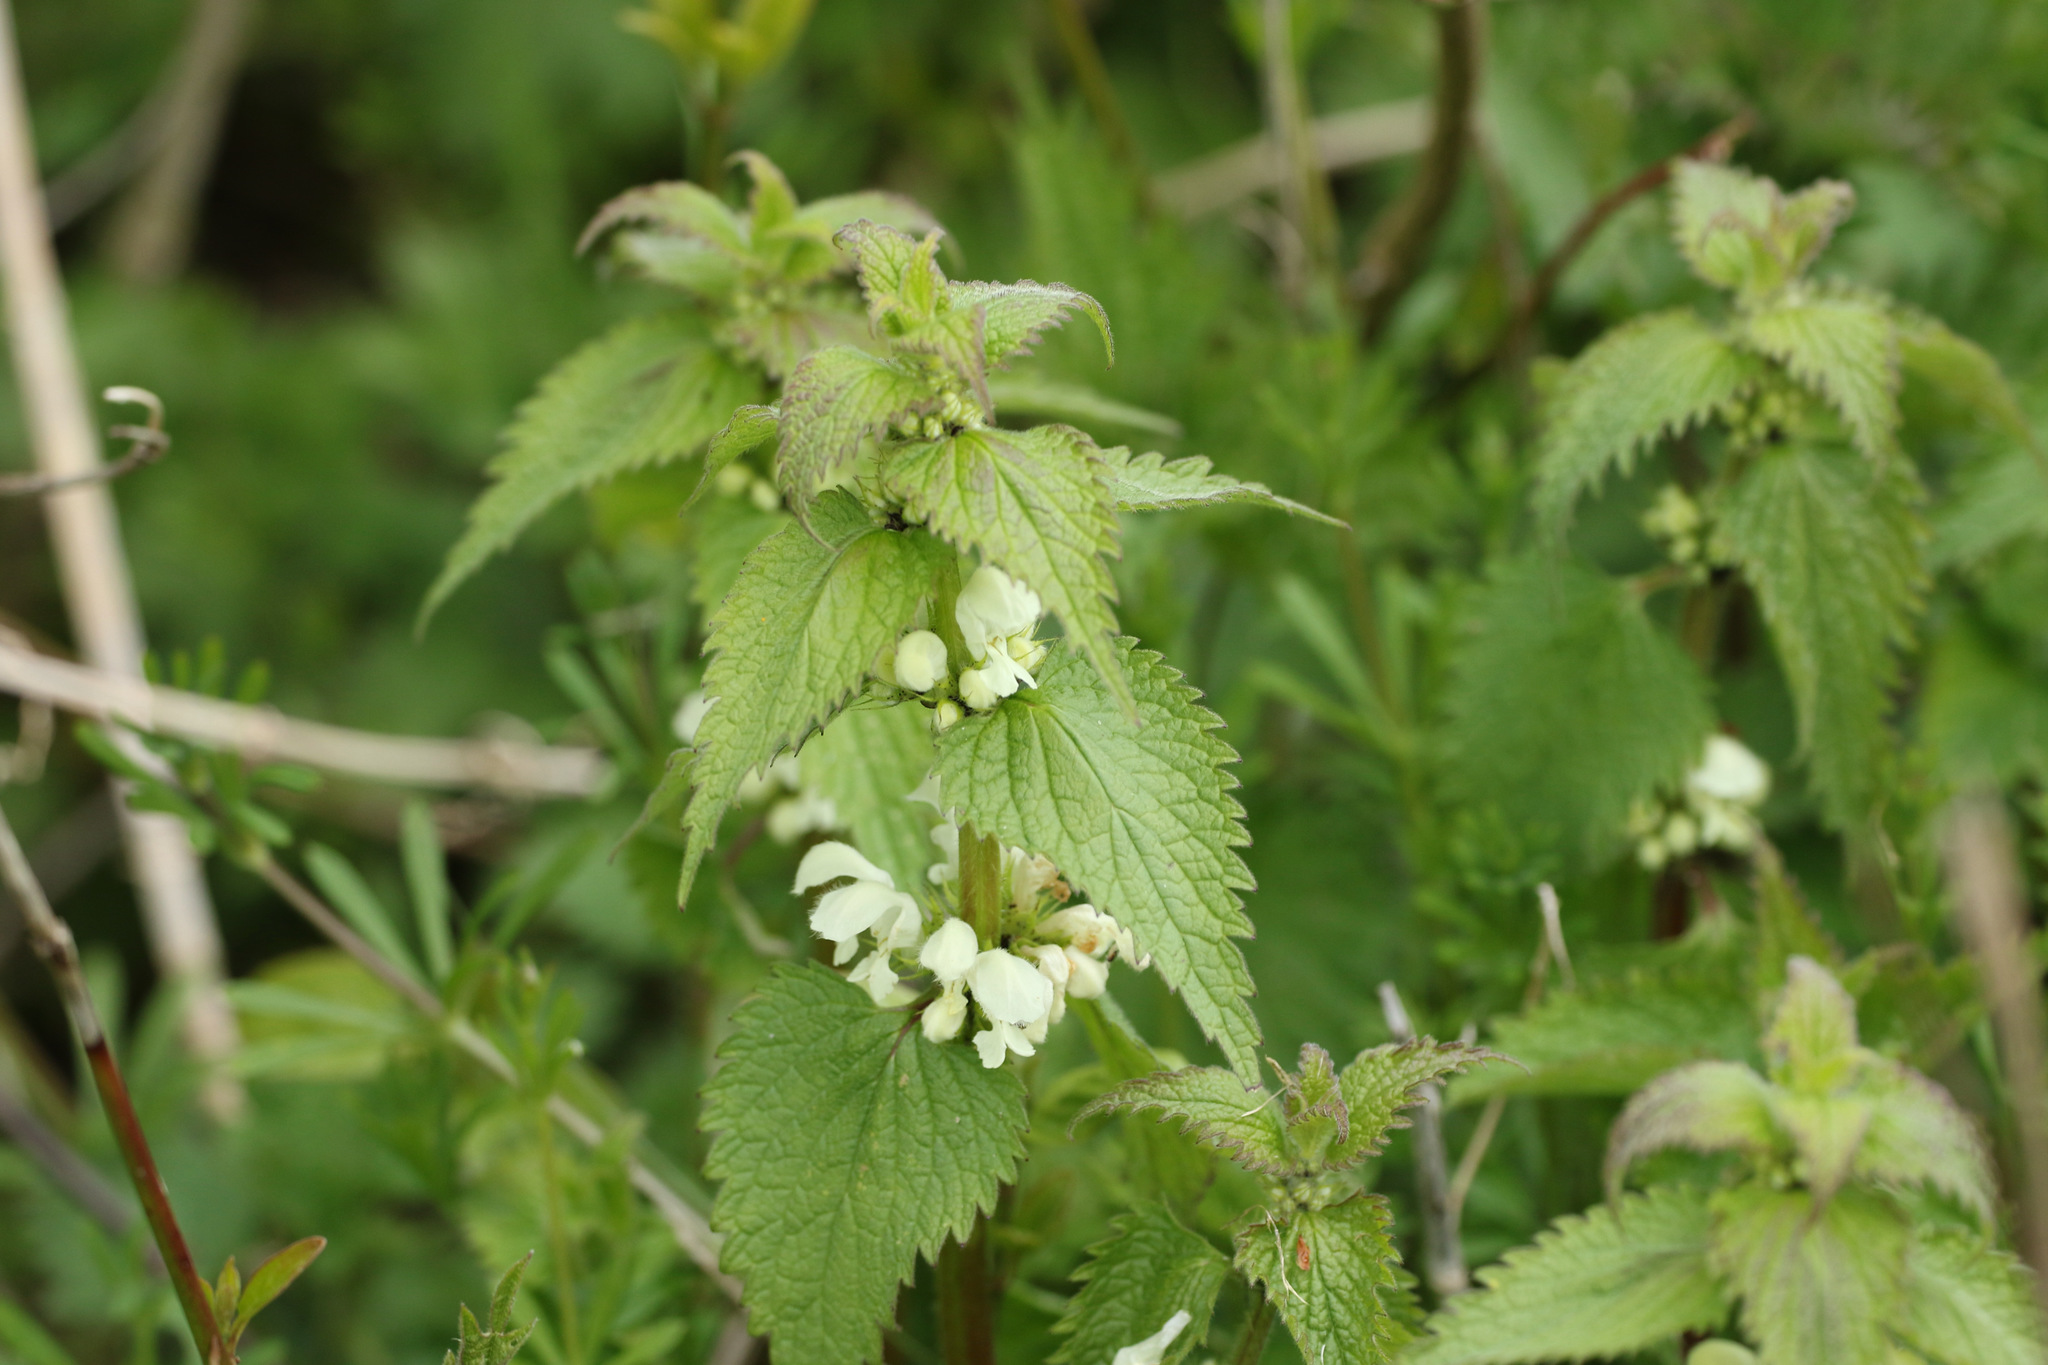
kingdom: Plantae
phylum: Tracheophyta
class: Magnoliopsida
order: Lamiales
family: Lamiaceae
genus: Lamium
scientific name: Lamium album
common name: White dead-nettle
